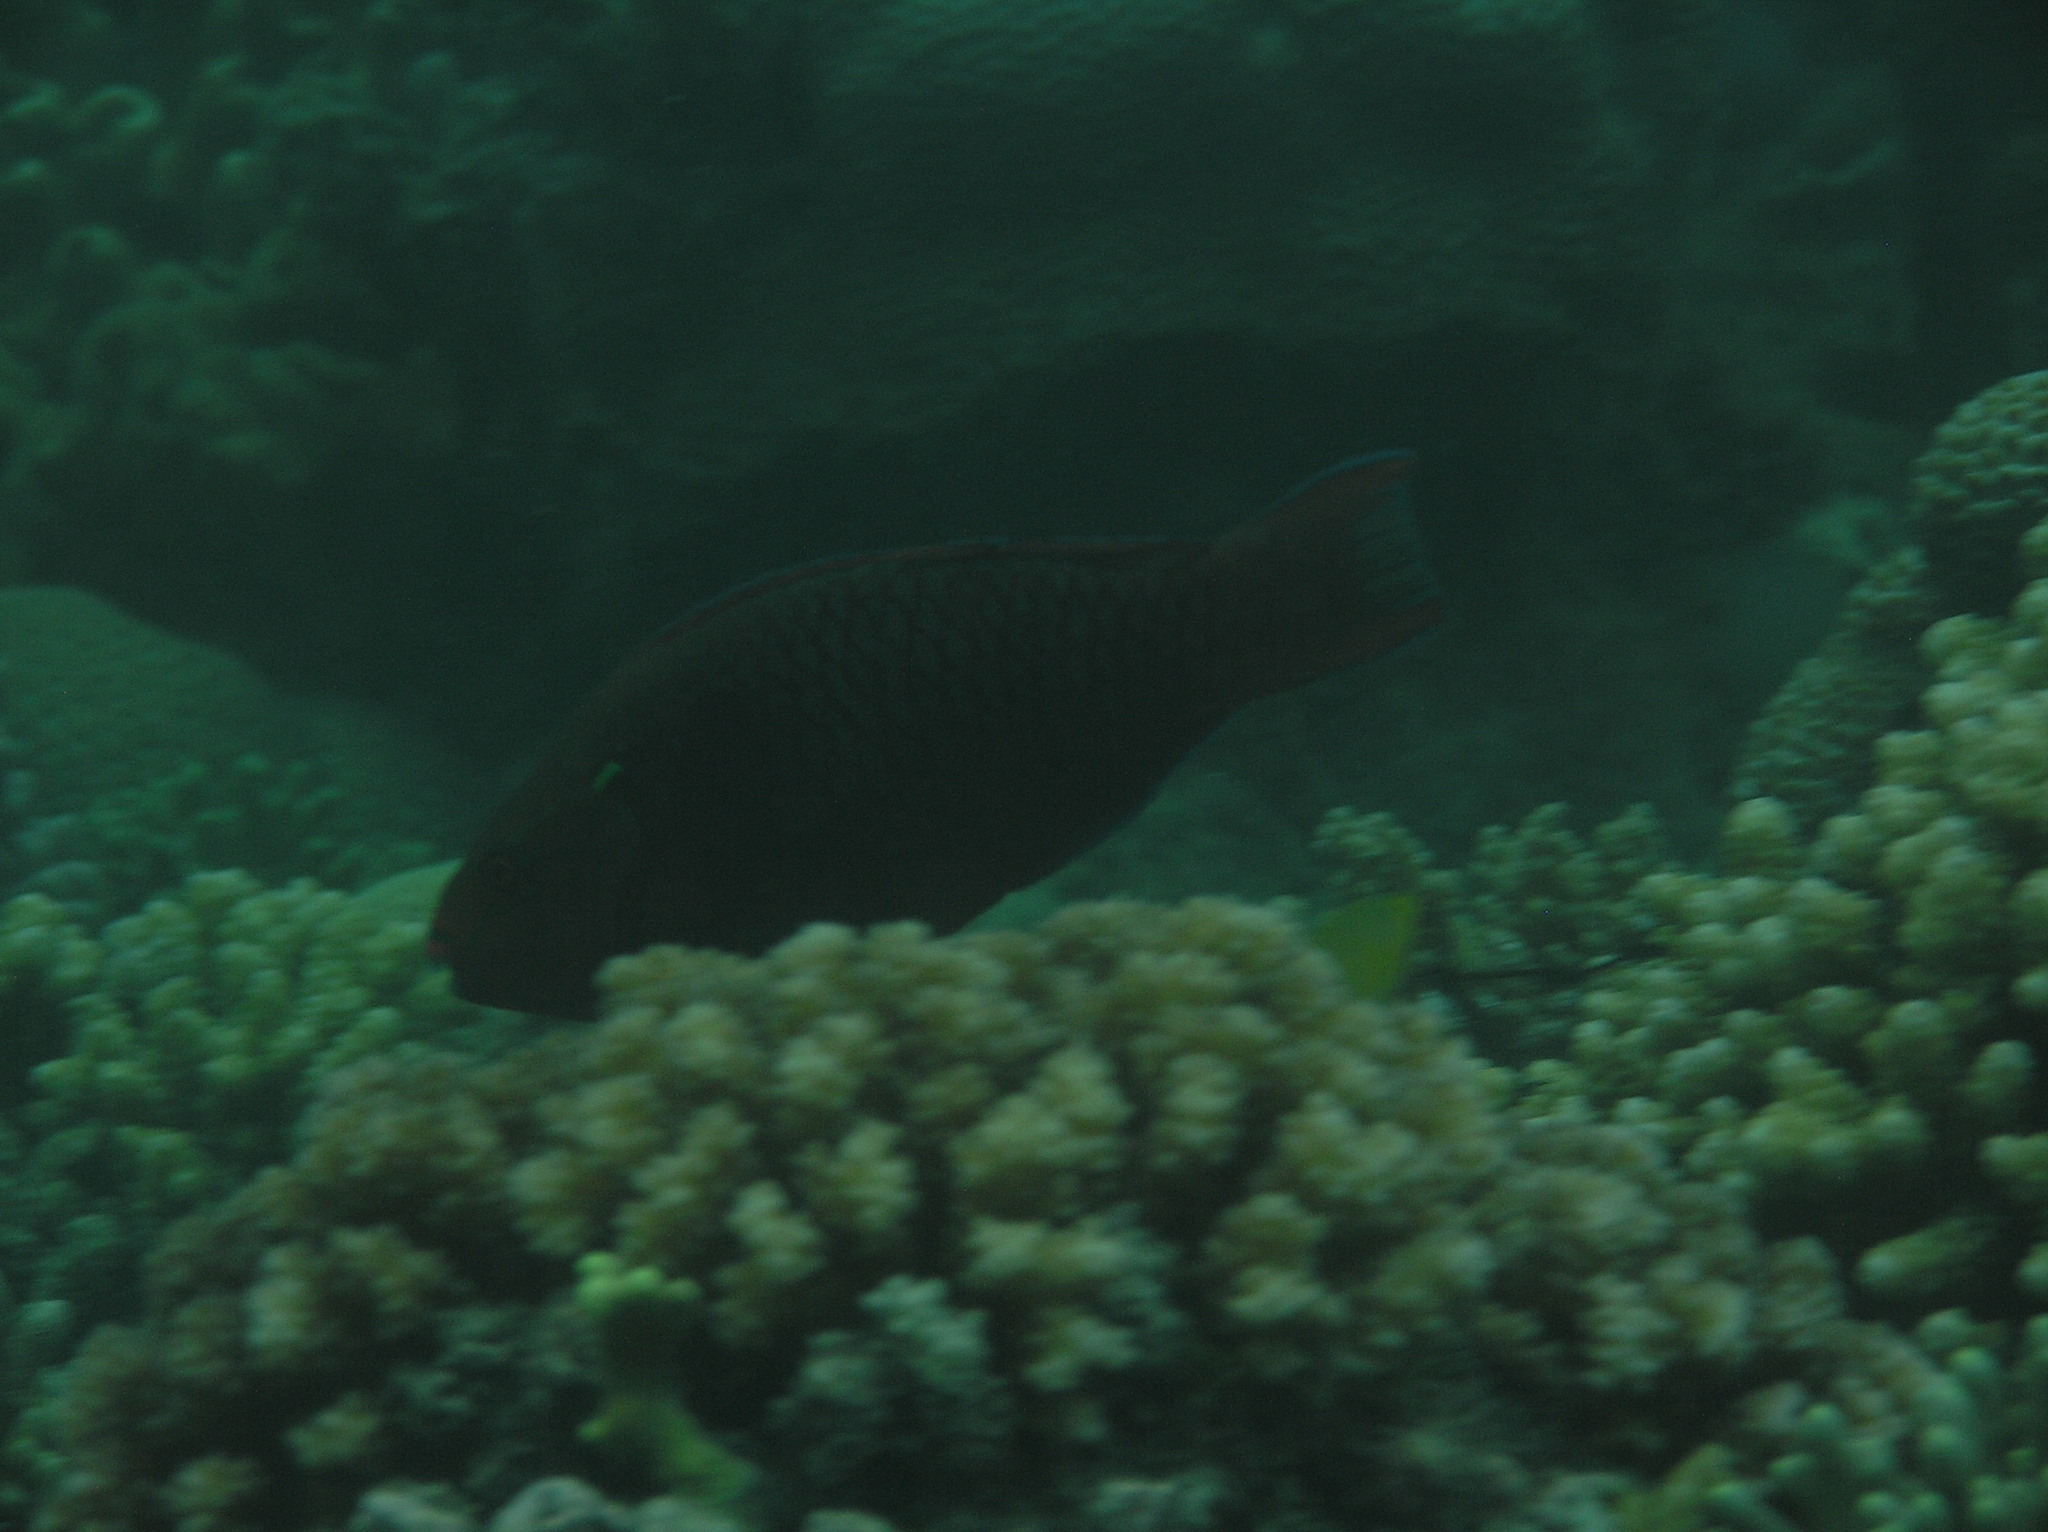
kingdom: Animalia
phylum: Chordata
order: Perciformes
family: Scaridae
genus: Scarus
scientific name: Scarus niger
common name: Dusky parrotfish
